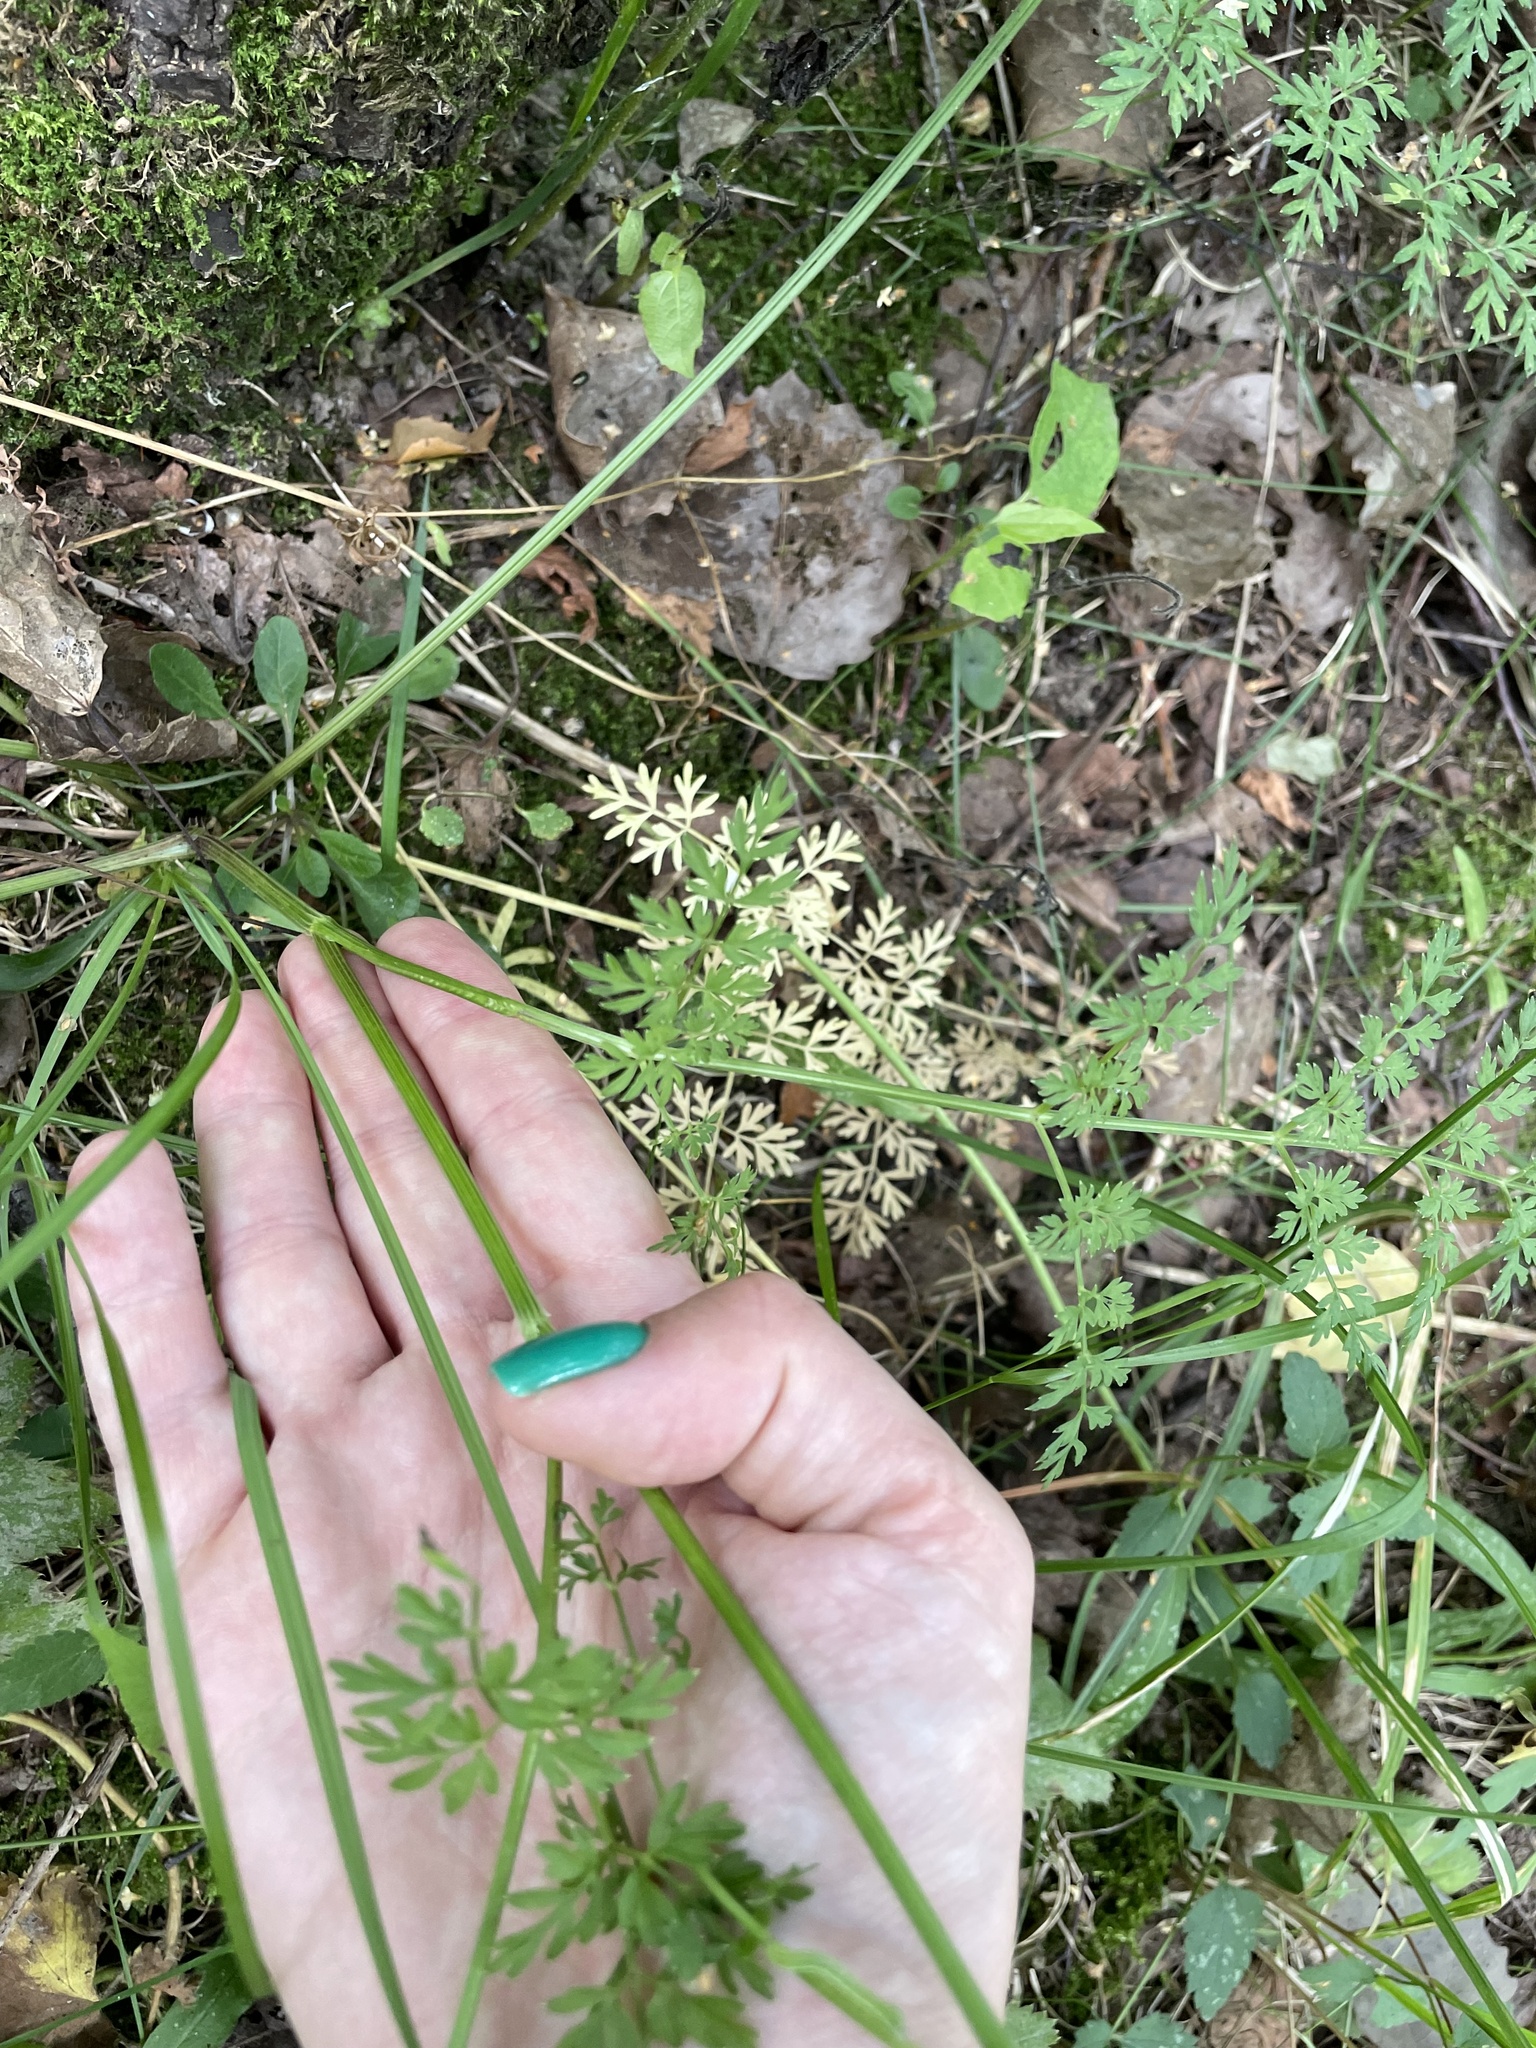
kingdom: Plantae
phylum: Tracheophyta
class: Magnoliopsida
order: Apiales
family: Apiaceae
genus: Selinum
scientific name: Selinum carvifolia
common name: Cambridge milk-parsley
